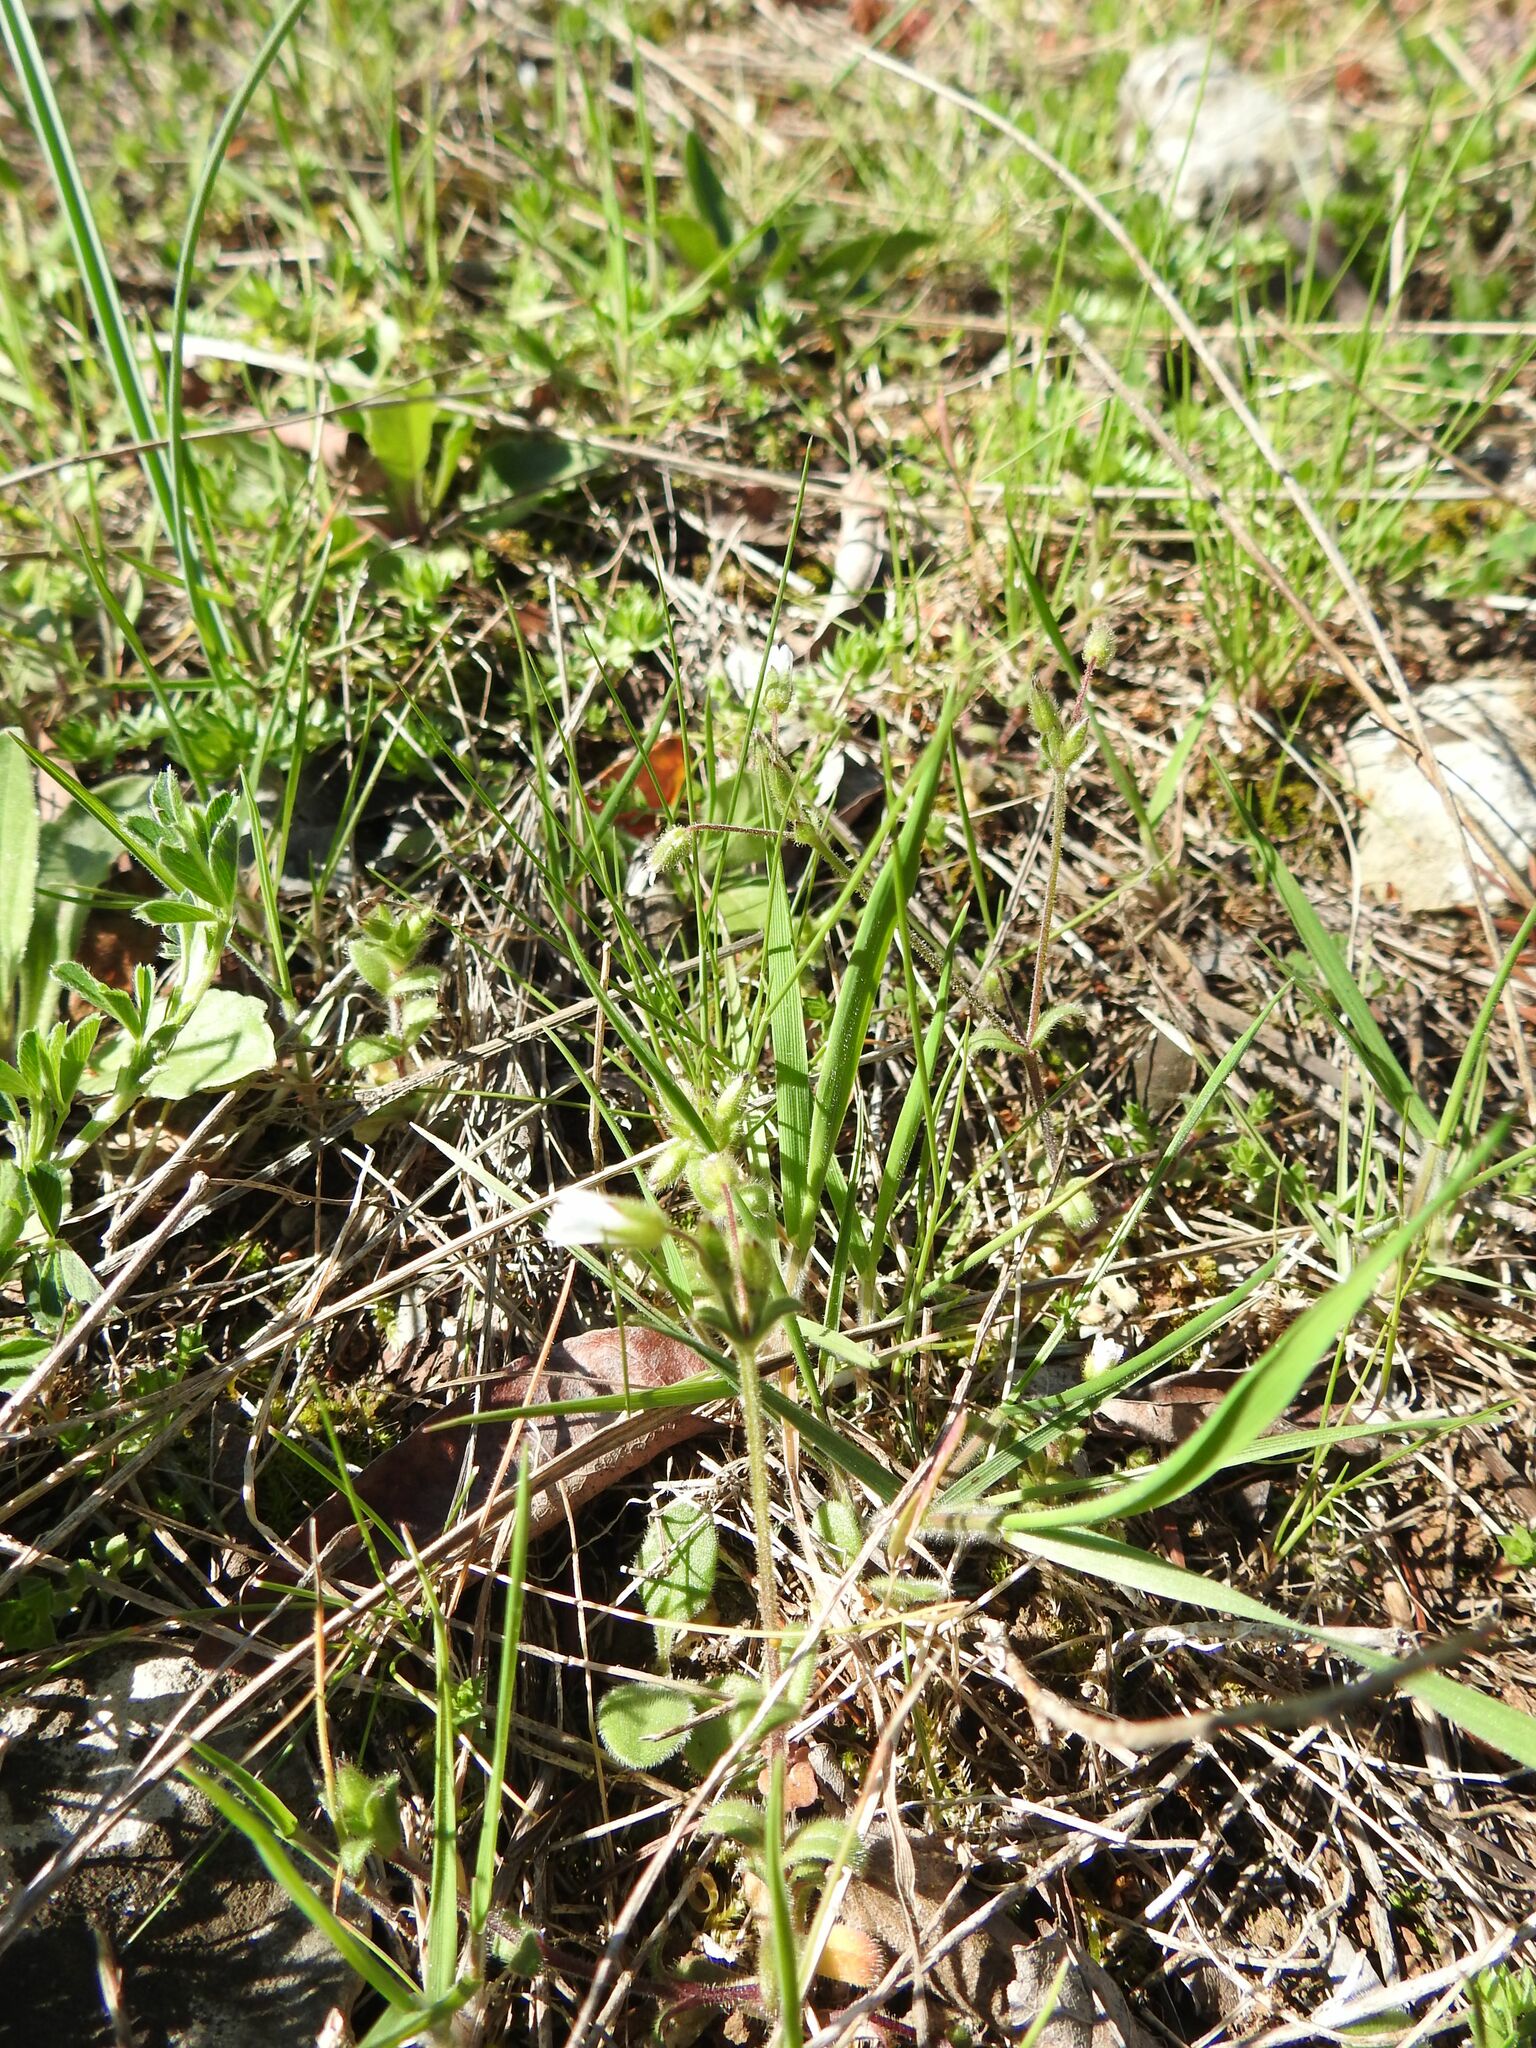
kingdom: Plantae
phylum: Tracheophyta
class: Magnoliopsida
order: Caryophyllales
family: Caryophyllaceae
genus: Cerastium
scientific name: Cerastium pumilum
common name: Dwarf mouse-ear
